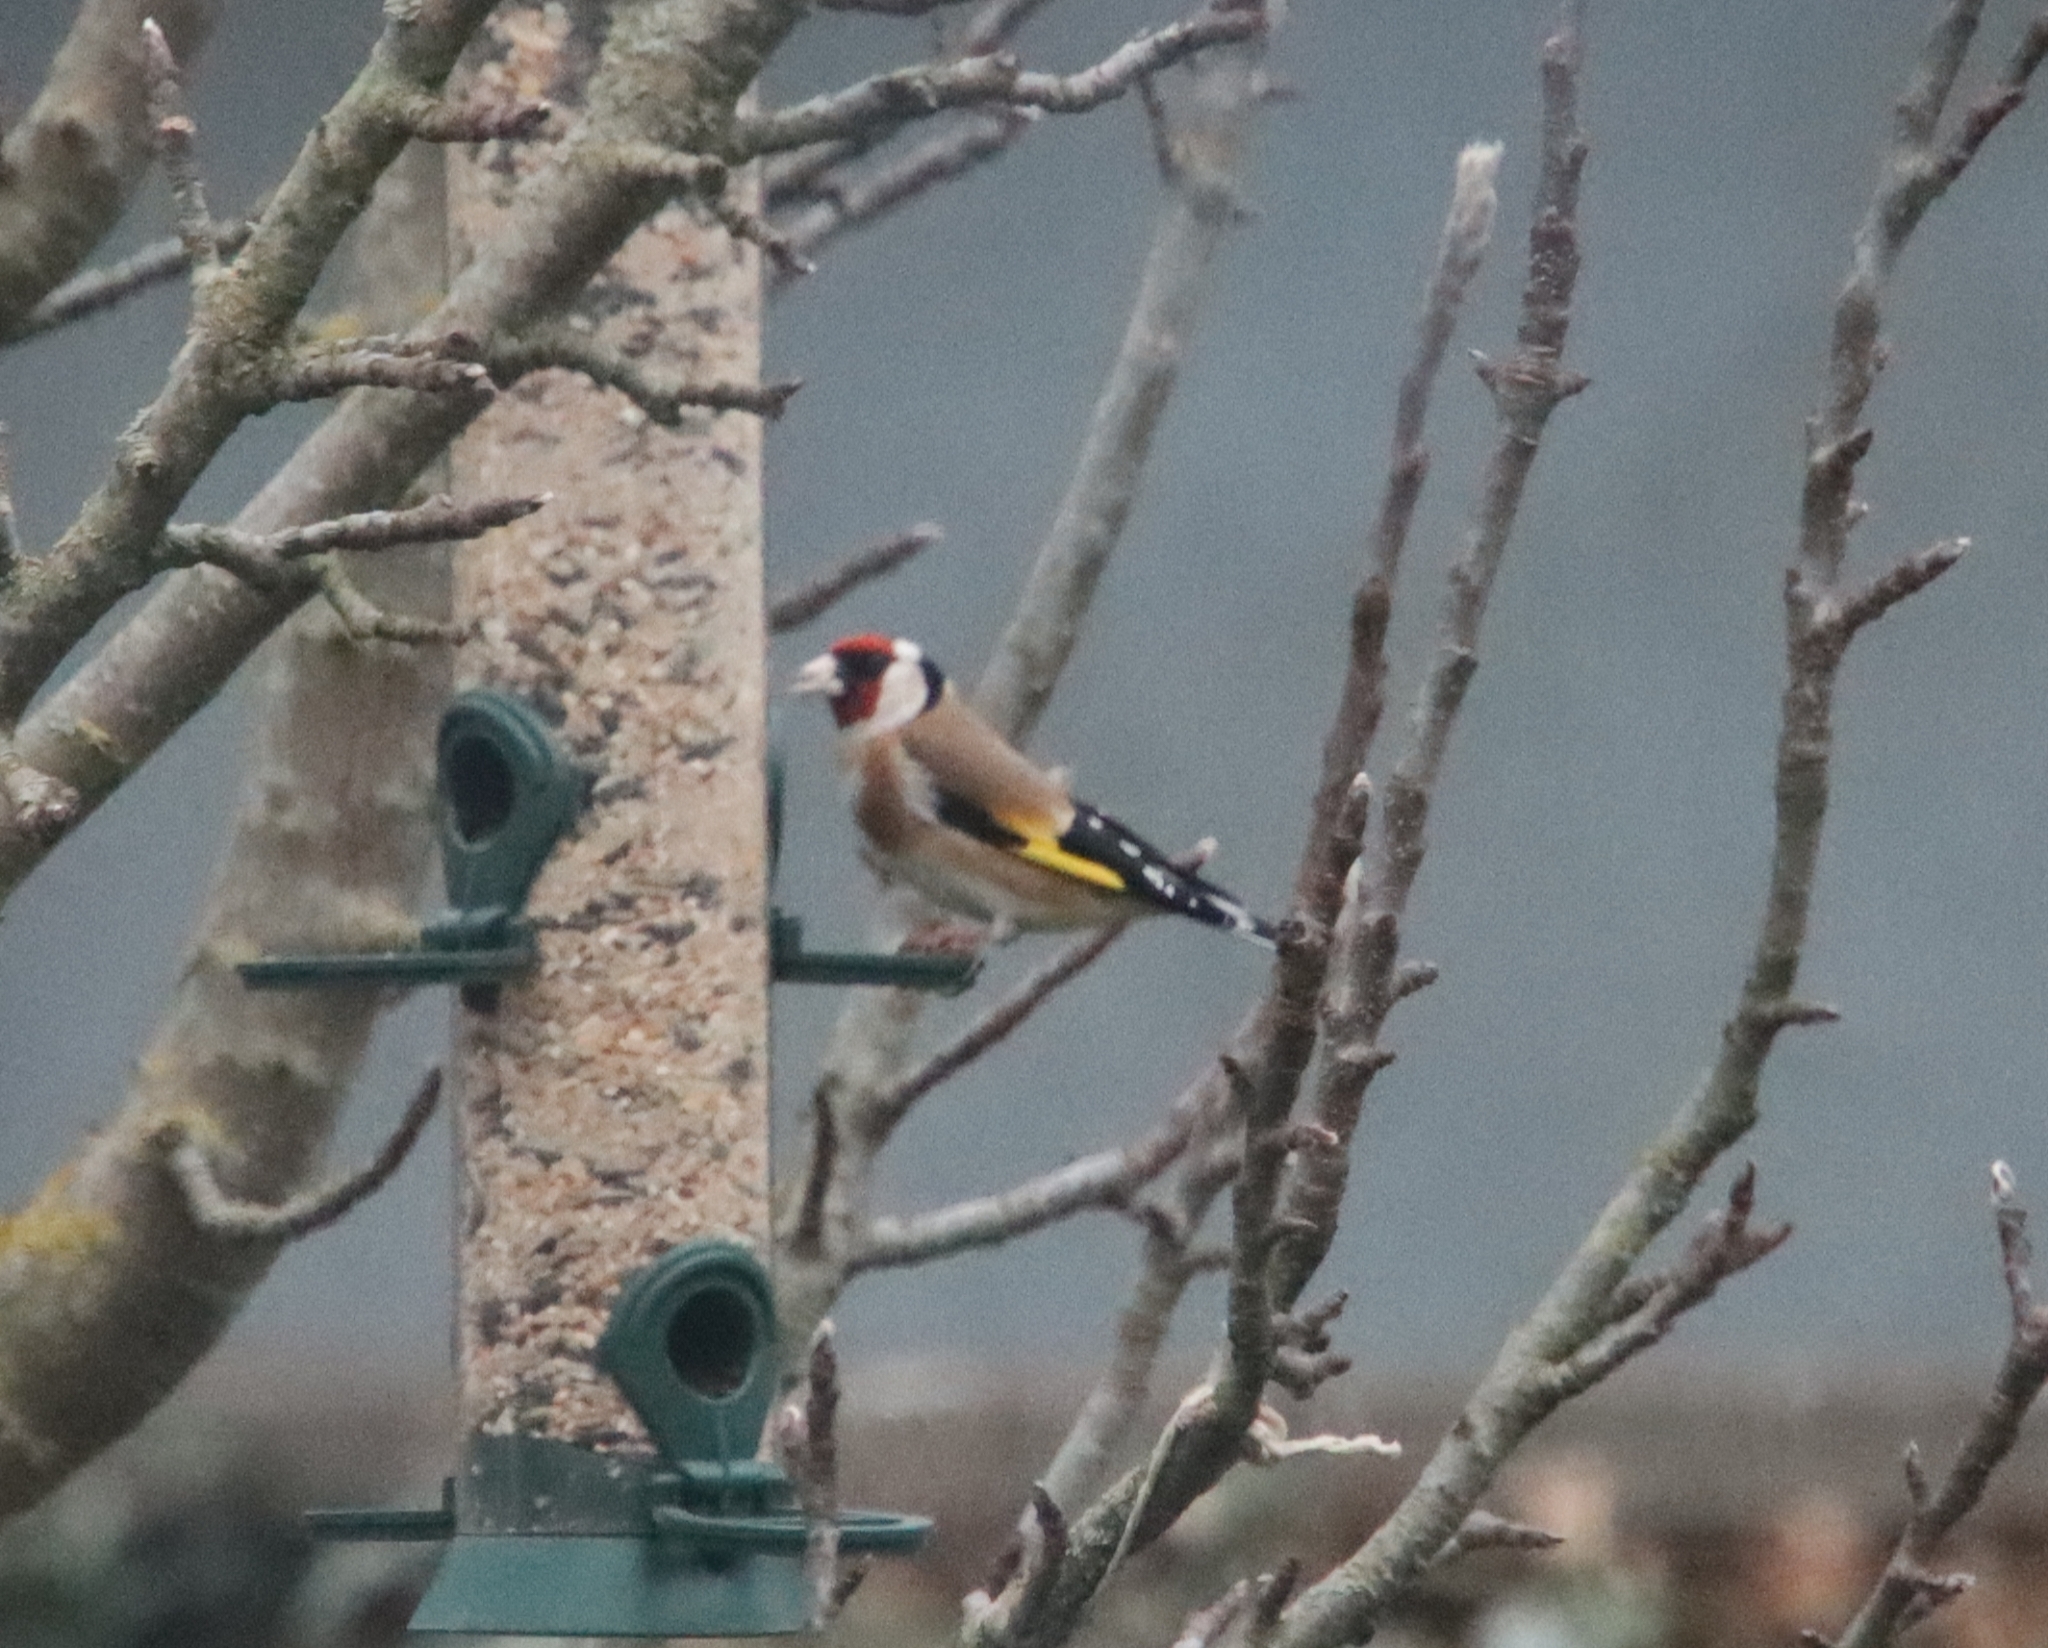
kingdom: Animalia
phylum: Chordata
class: Aves
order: Passeriformes
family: Fringillidae
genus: Carduelis
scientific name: Carduelis carduelis
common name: European goldfinch
